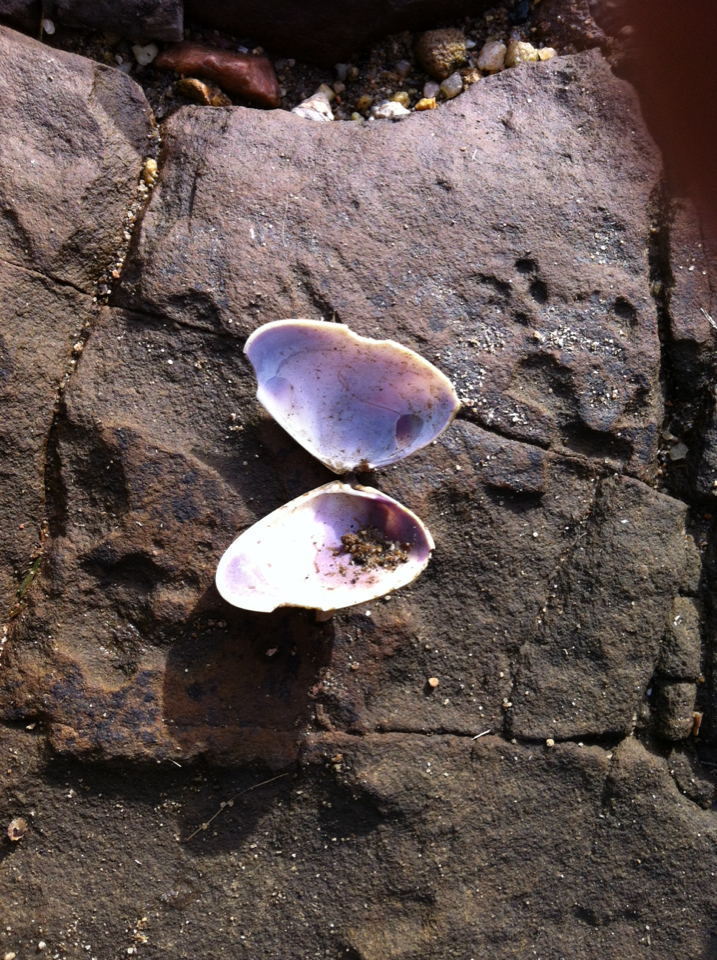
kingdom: Animalia
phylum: Mollusca
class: Bivalvia
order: Cardiida
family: Donacidae
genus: Latona
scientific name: Latona deltoides
